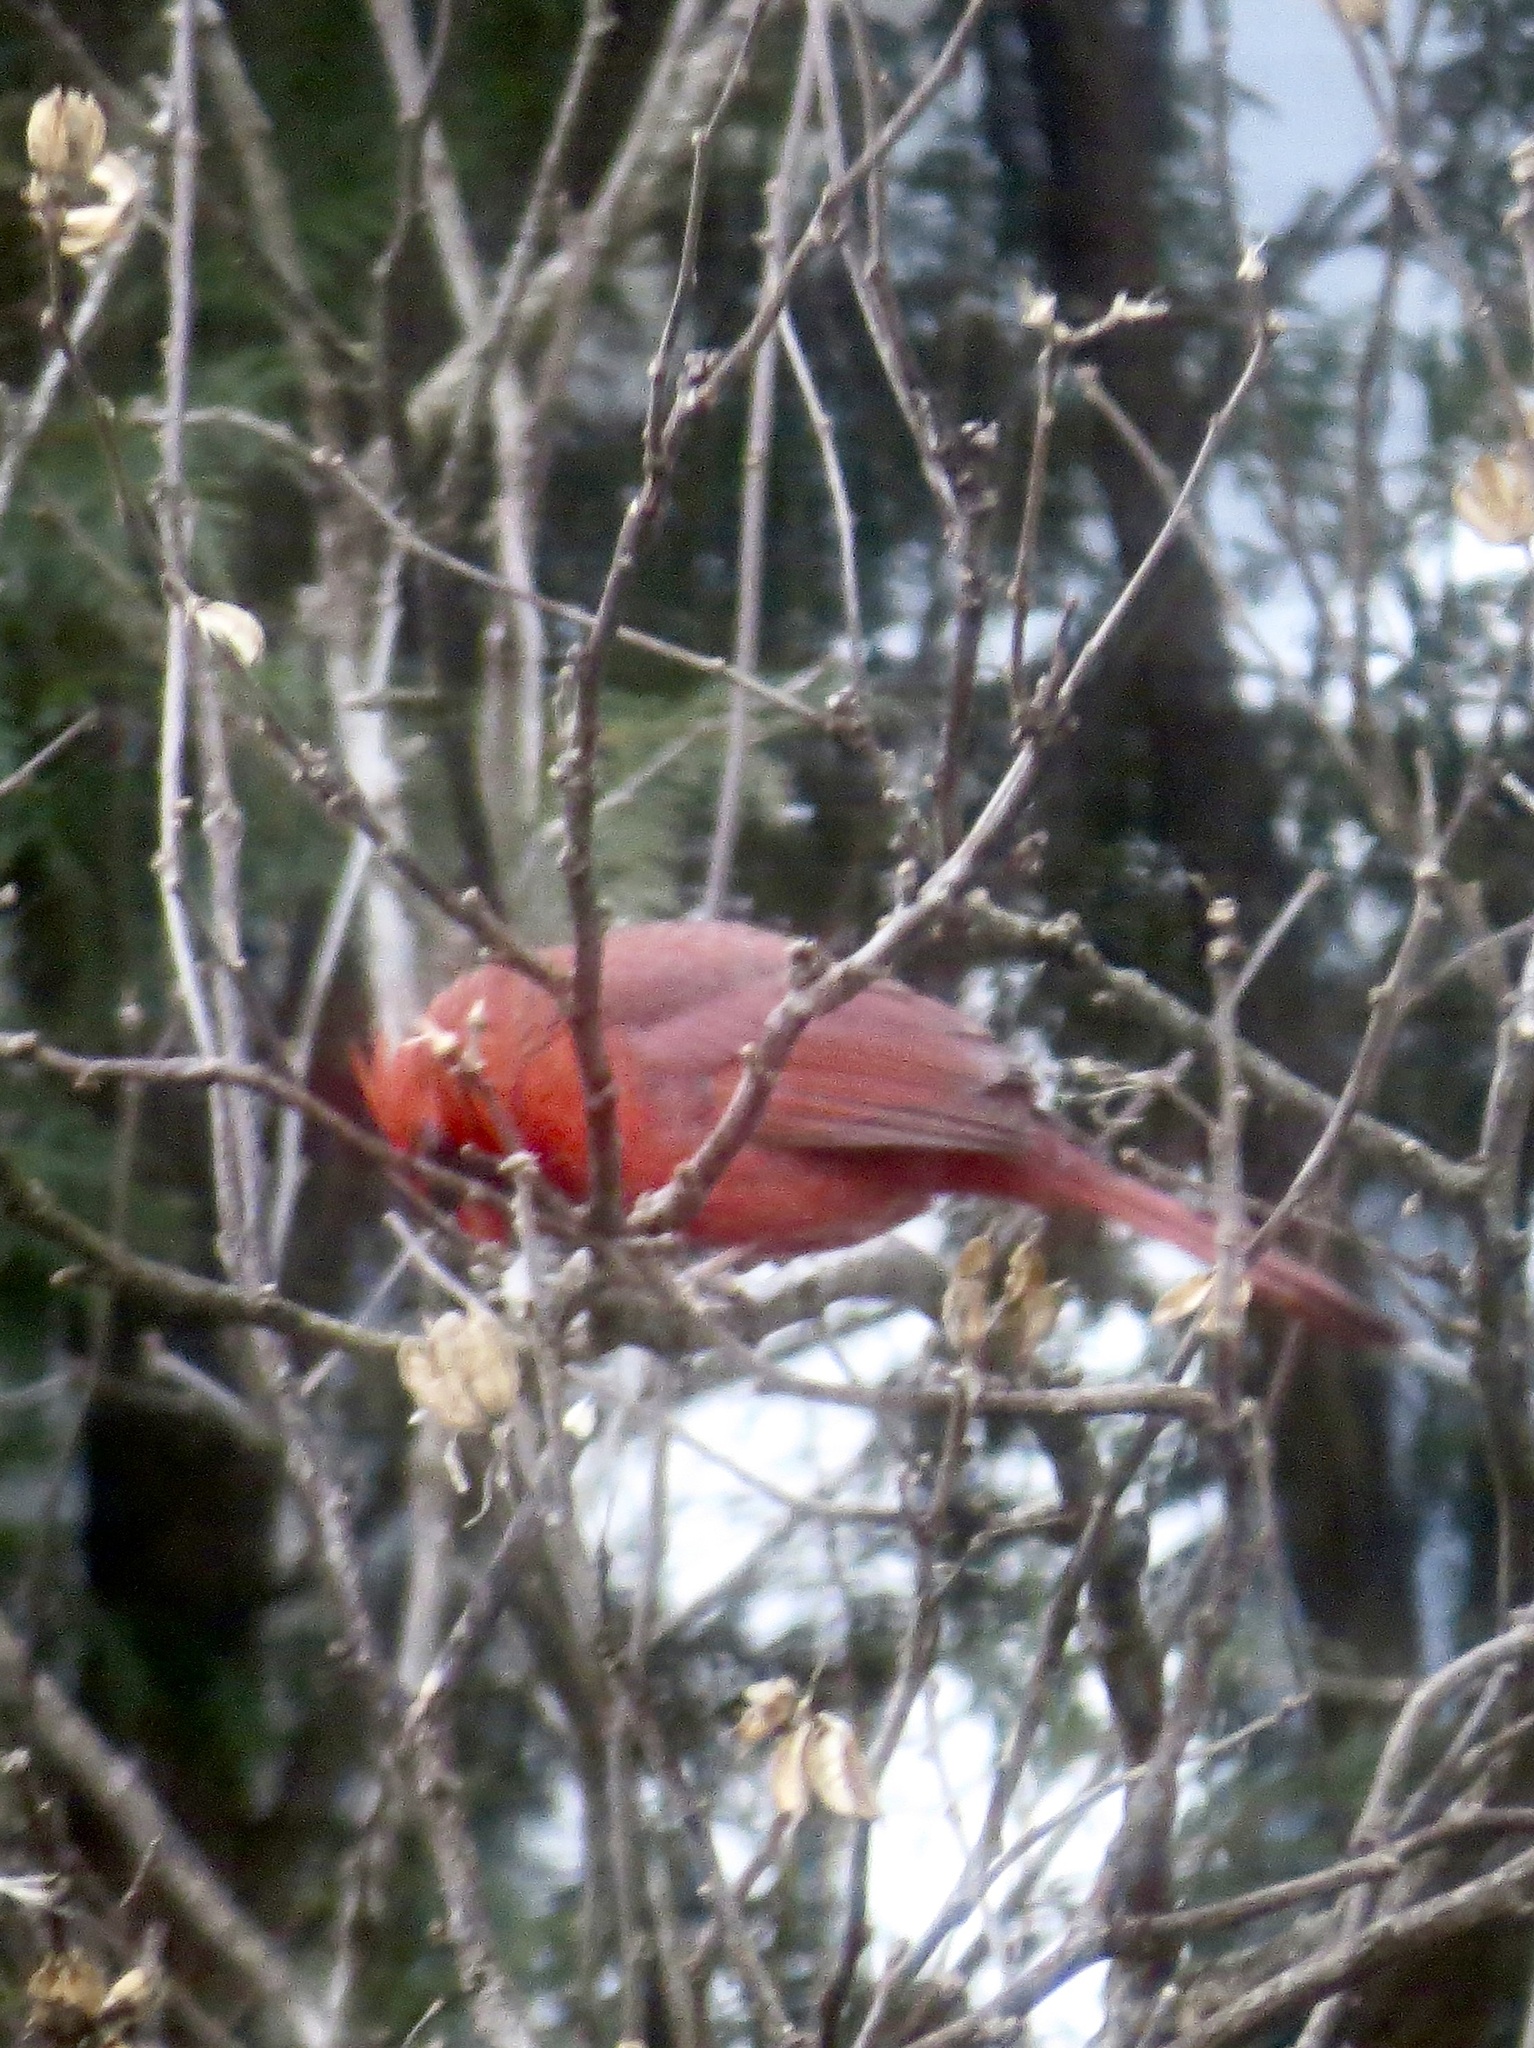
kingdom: Animalia
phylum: Chordata
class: Aves
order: Passeriformes
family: Cardinalidae
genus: Cardinalis
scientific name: Cardinalis cardinalis
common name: Northern cardinal
